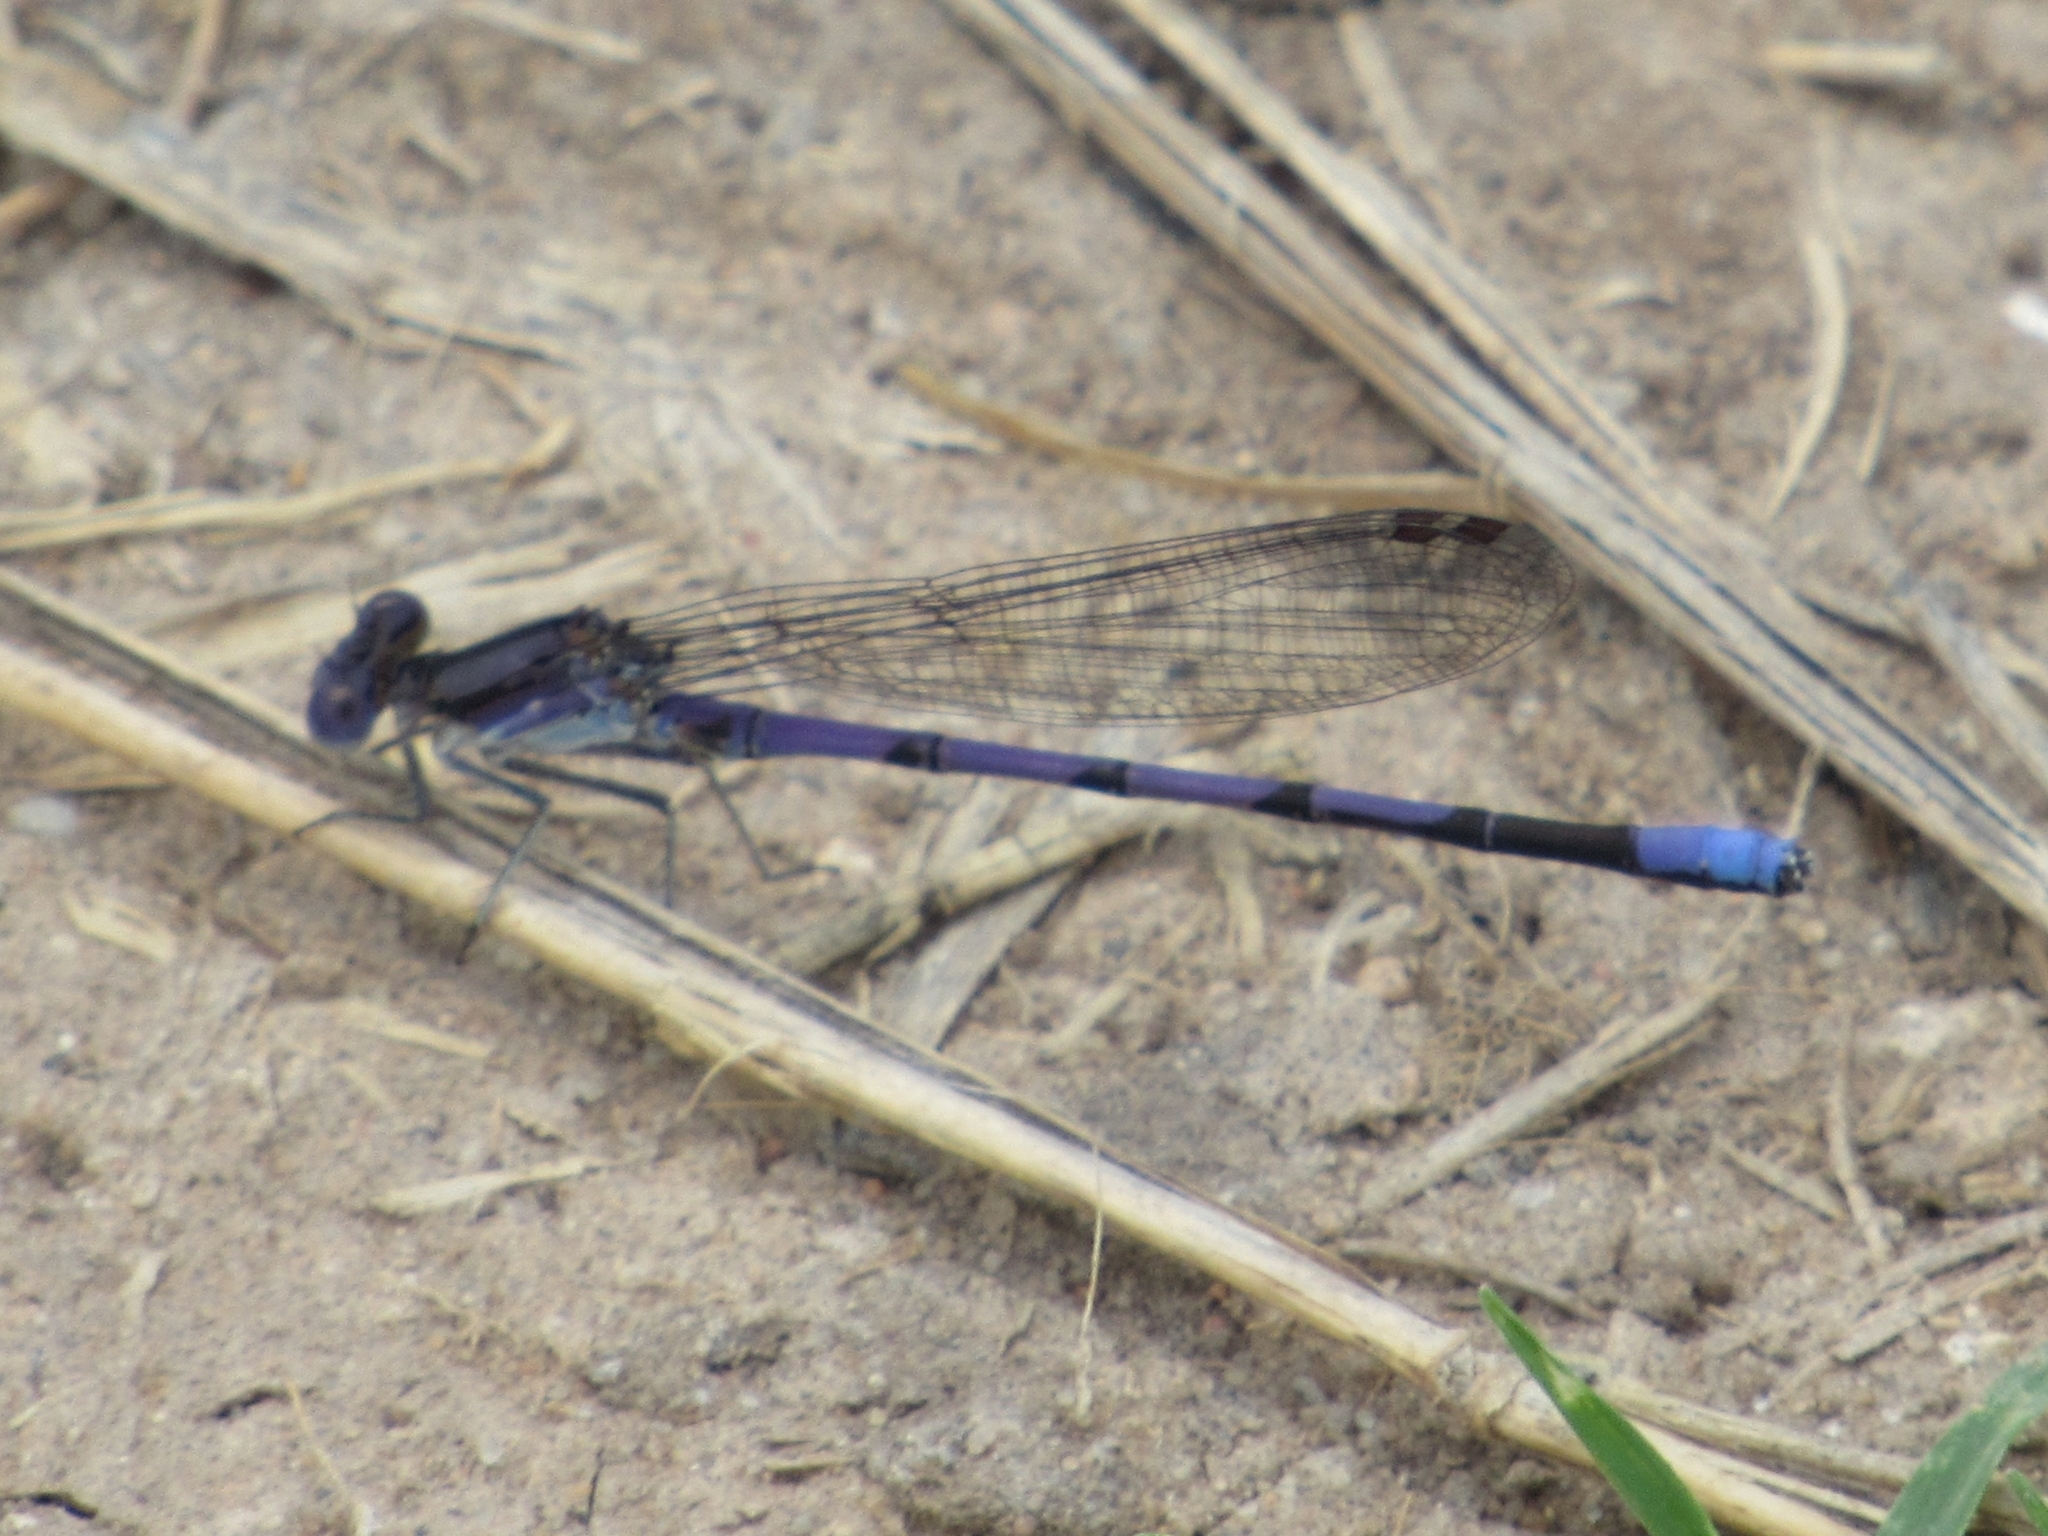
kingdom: Animalia
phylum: Arthropoda
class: Insecta
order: Odonata
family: Coenagrionidae
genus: Argia
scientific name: Argia fumipennis
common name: Variable dancer
